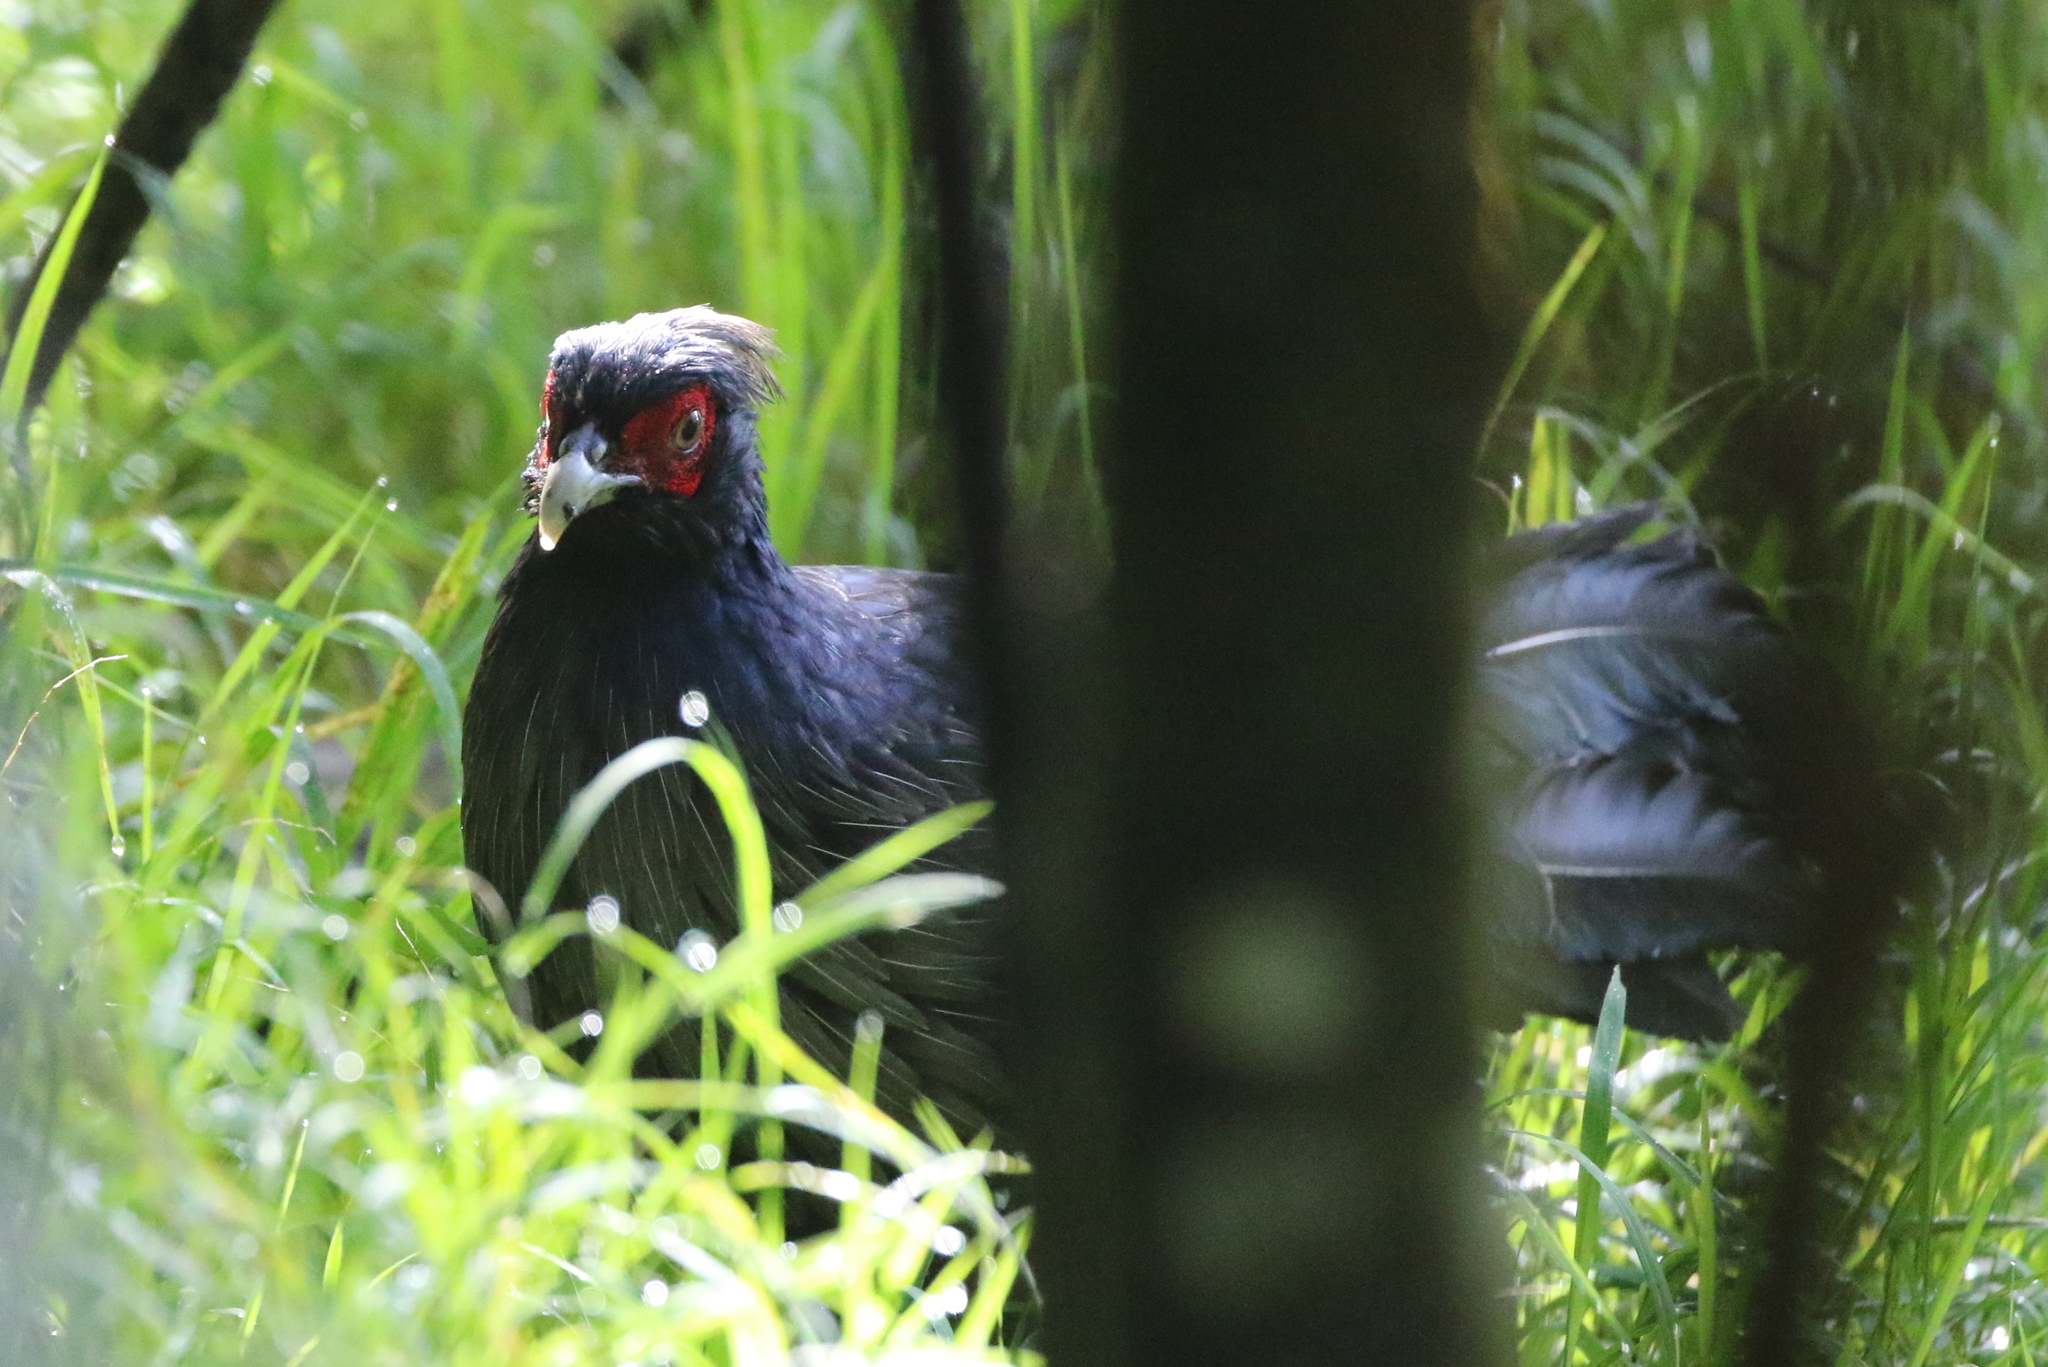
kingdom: Animalia
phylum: Chordata
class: Aves
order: Galliformes
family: Phasianidae
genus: Lophura
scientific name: Lophura leucomelanos
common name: Kalij pheasant
